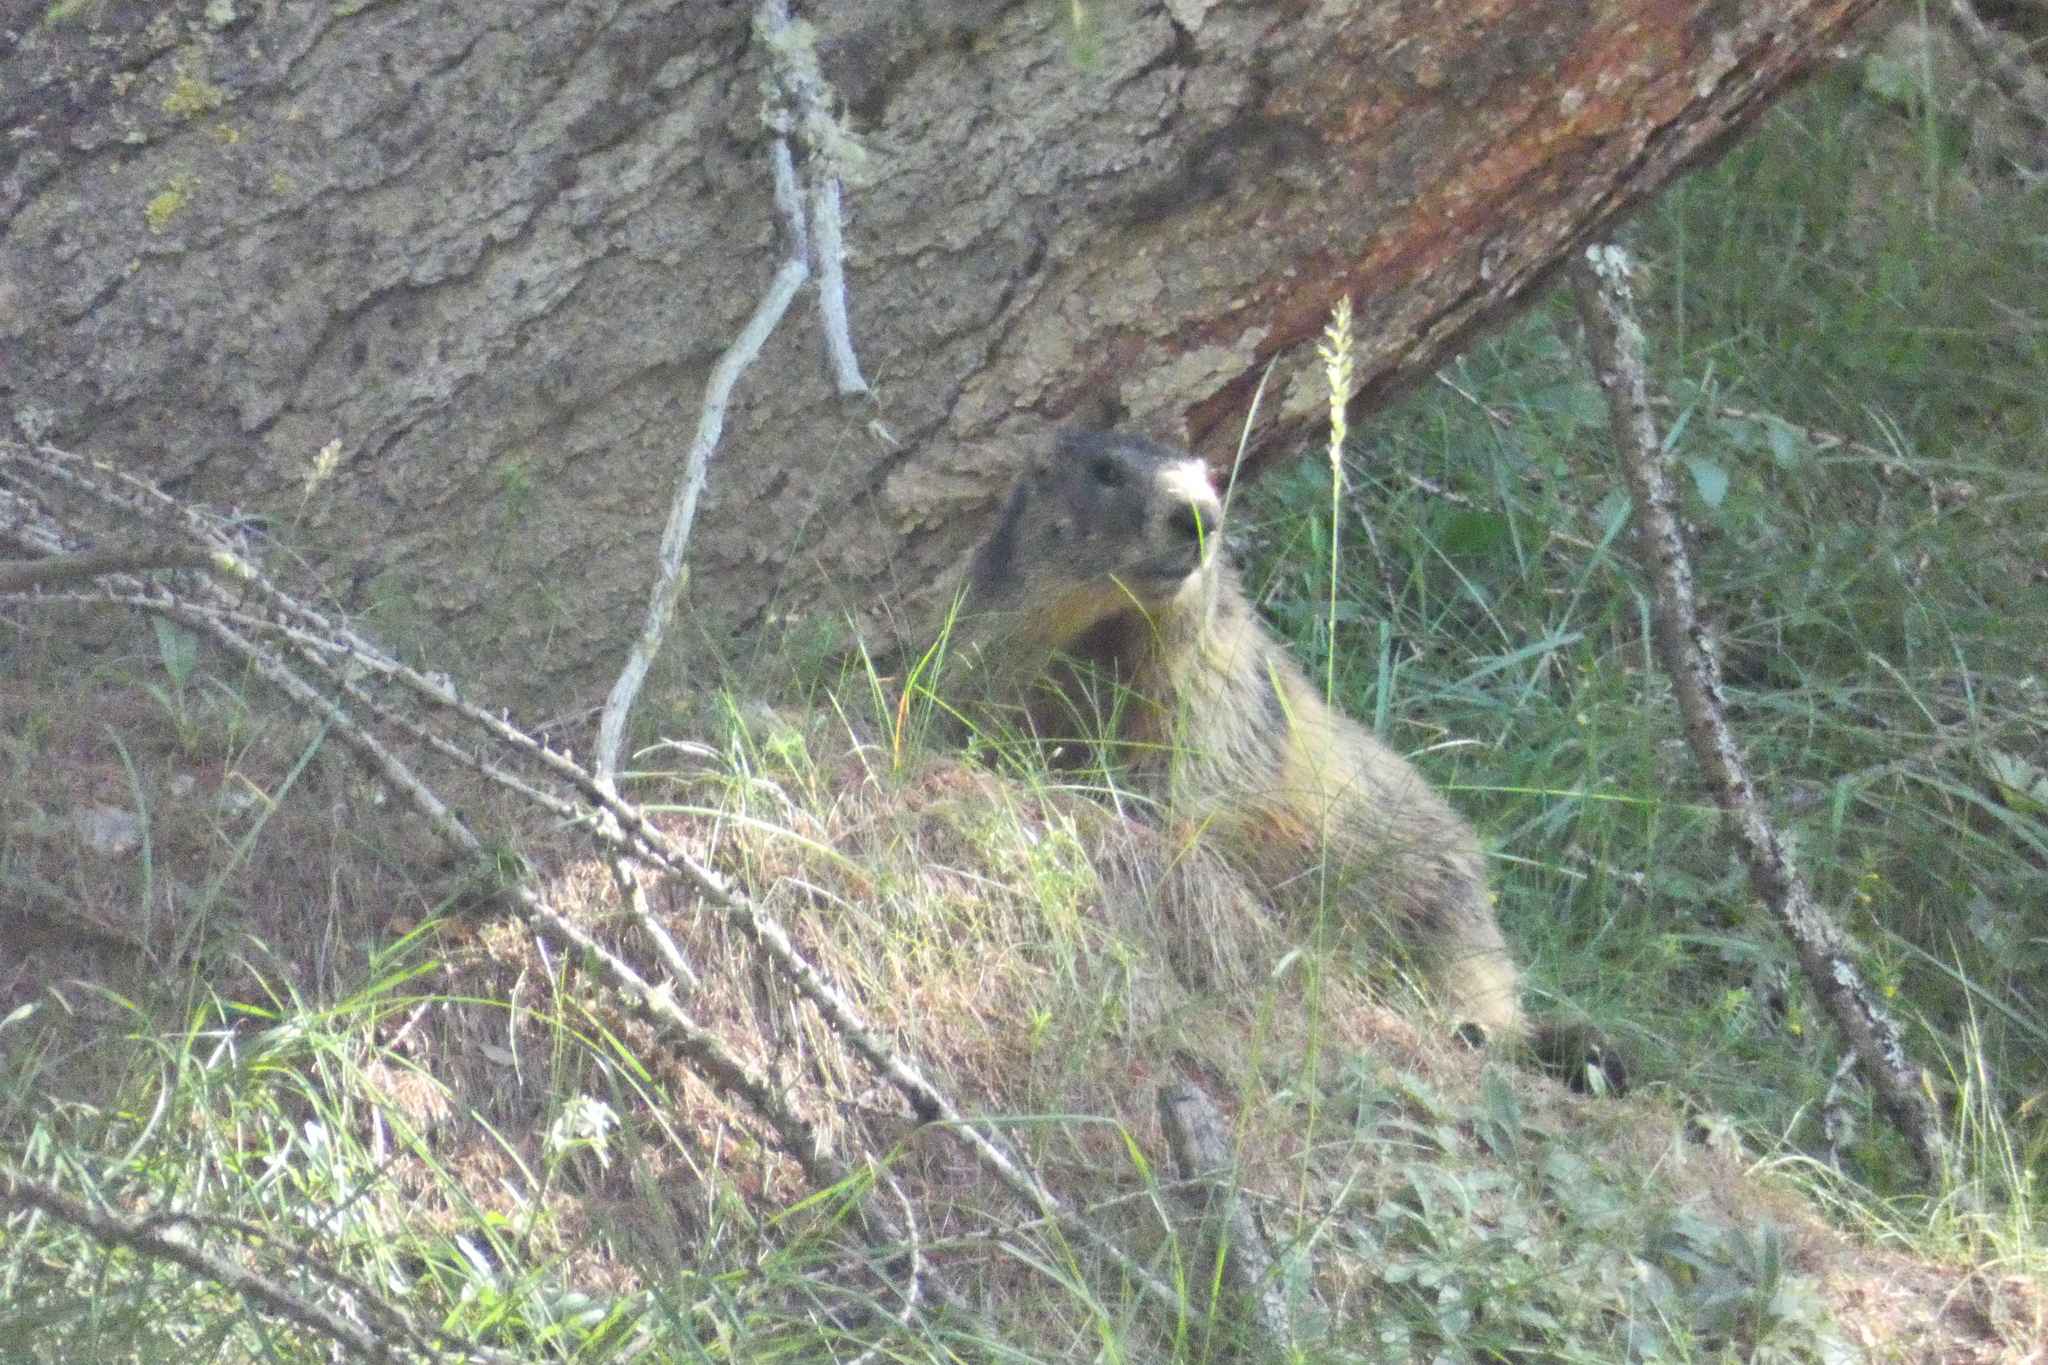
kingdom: Animalia
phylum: Chordata
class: Mammalia
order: Rodentia
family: Sciuridae
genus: Marmota
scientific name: Marmota marmota
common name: Alpine marmot
